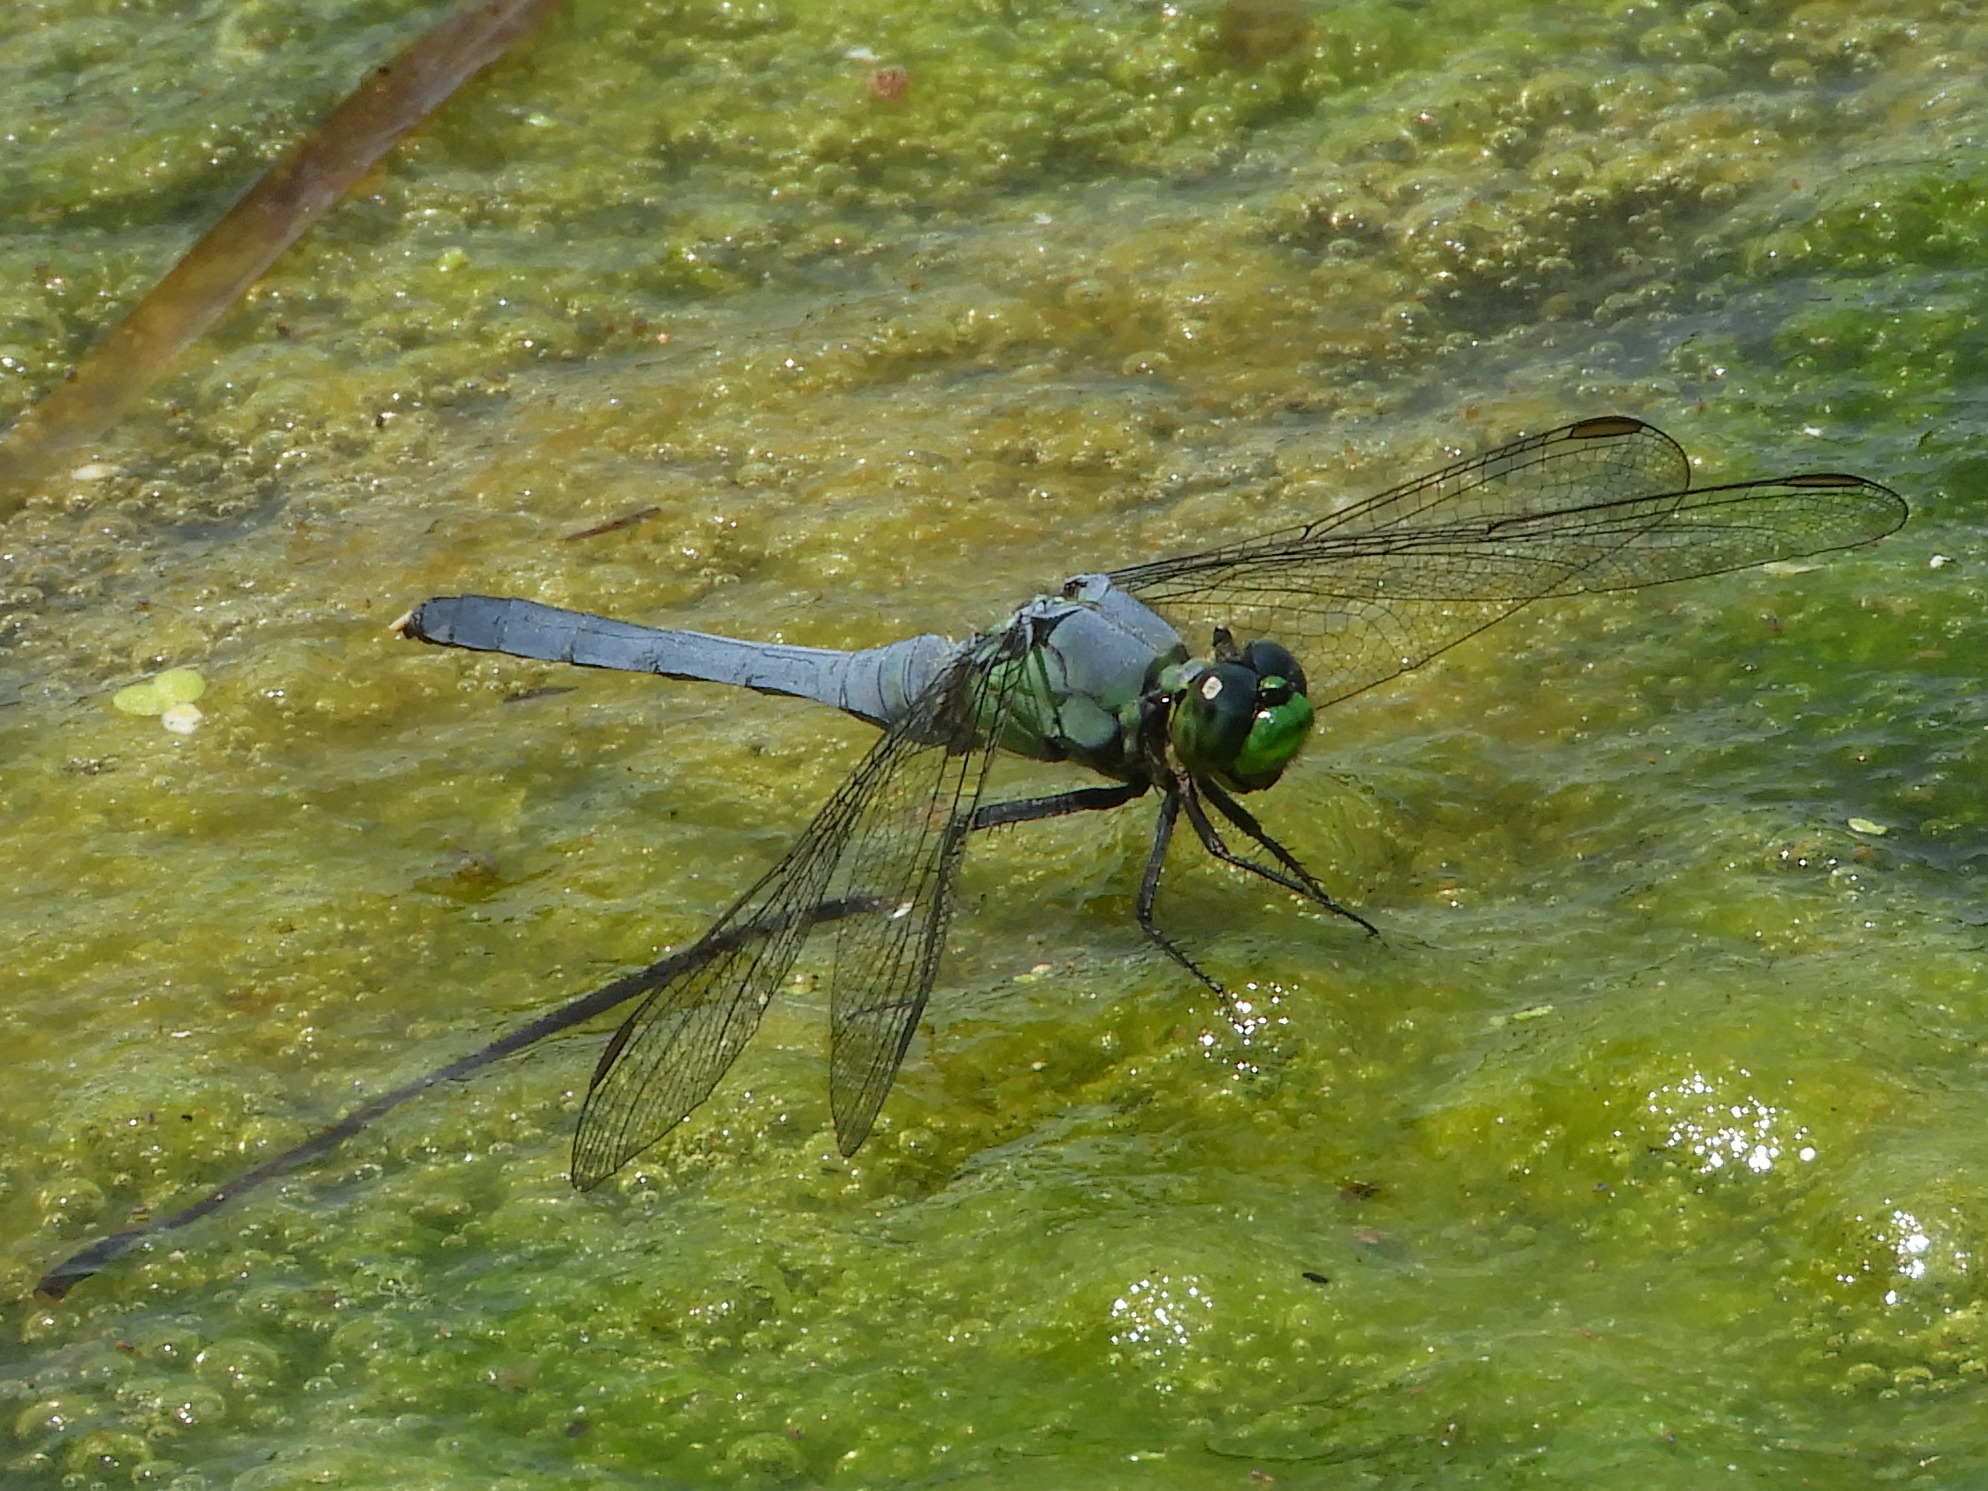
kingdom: Animalia
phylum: Arthropoda
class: Insecta
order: Odonata
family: Libellulidae
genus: Erythemis
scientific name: Erythemis simplicicollis
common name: Eastern pondhawk
